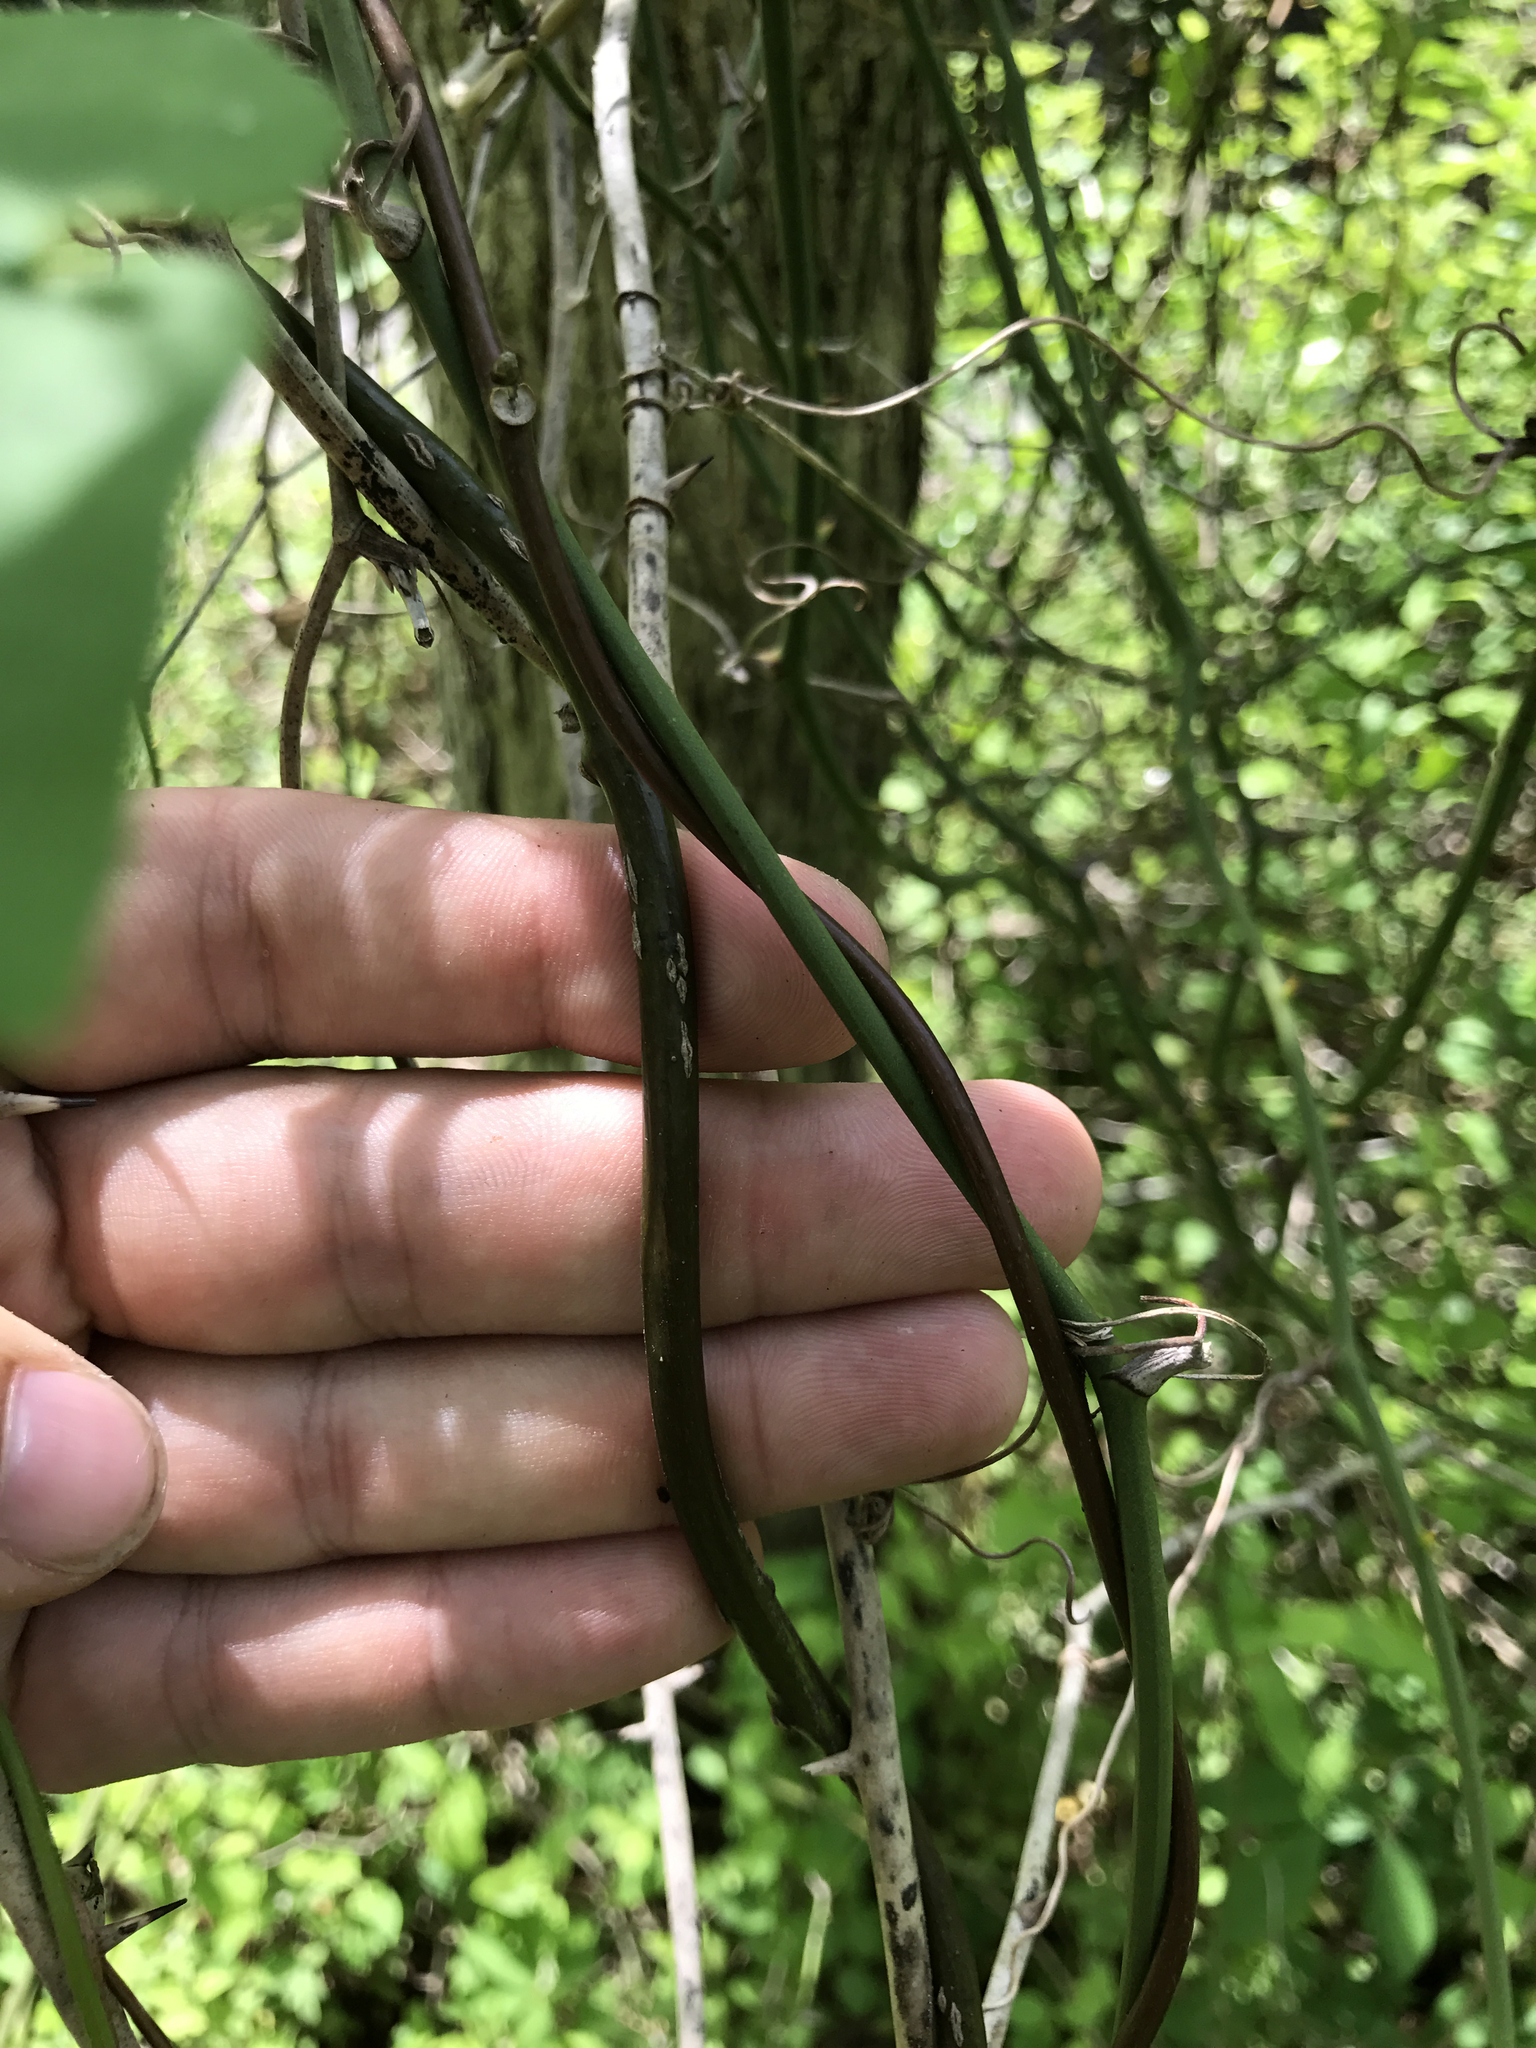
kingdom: Plantae
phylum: Tracheophyta
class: Magnoliopsida
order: Ranunculales
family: Menispermaceae
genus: Menispermum
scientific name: Menispermum canadense
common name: Moonseed
